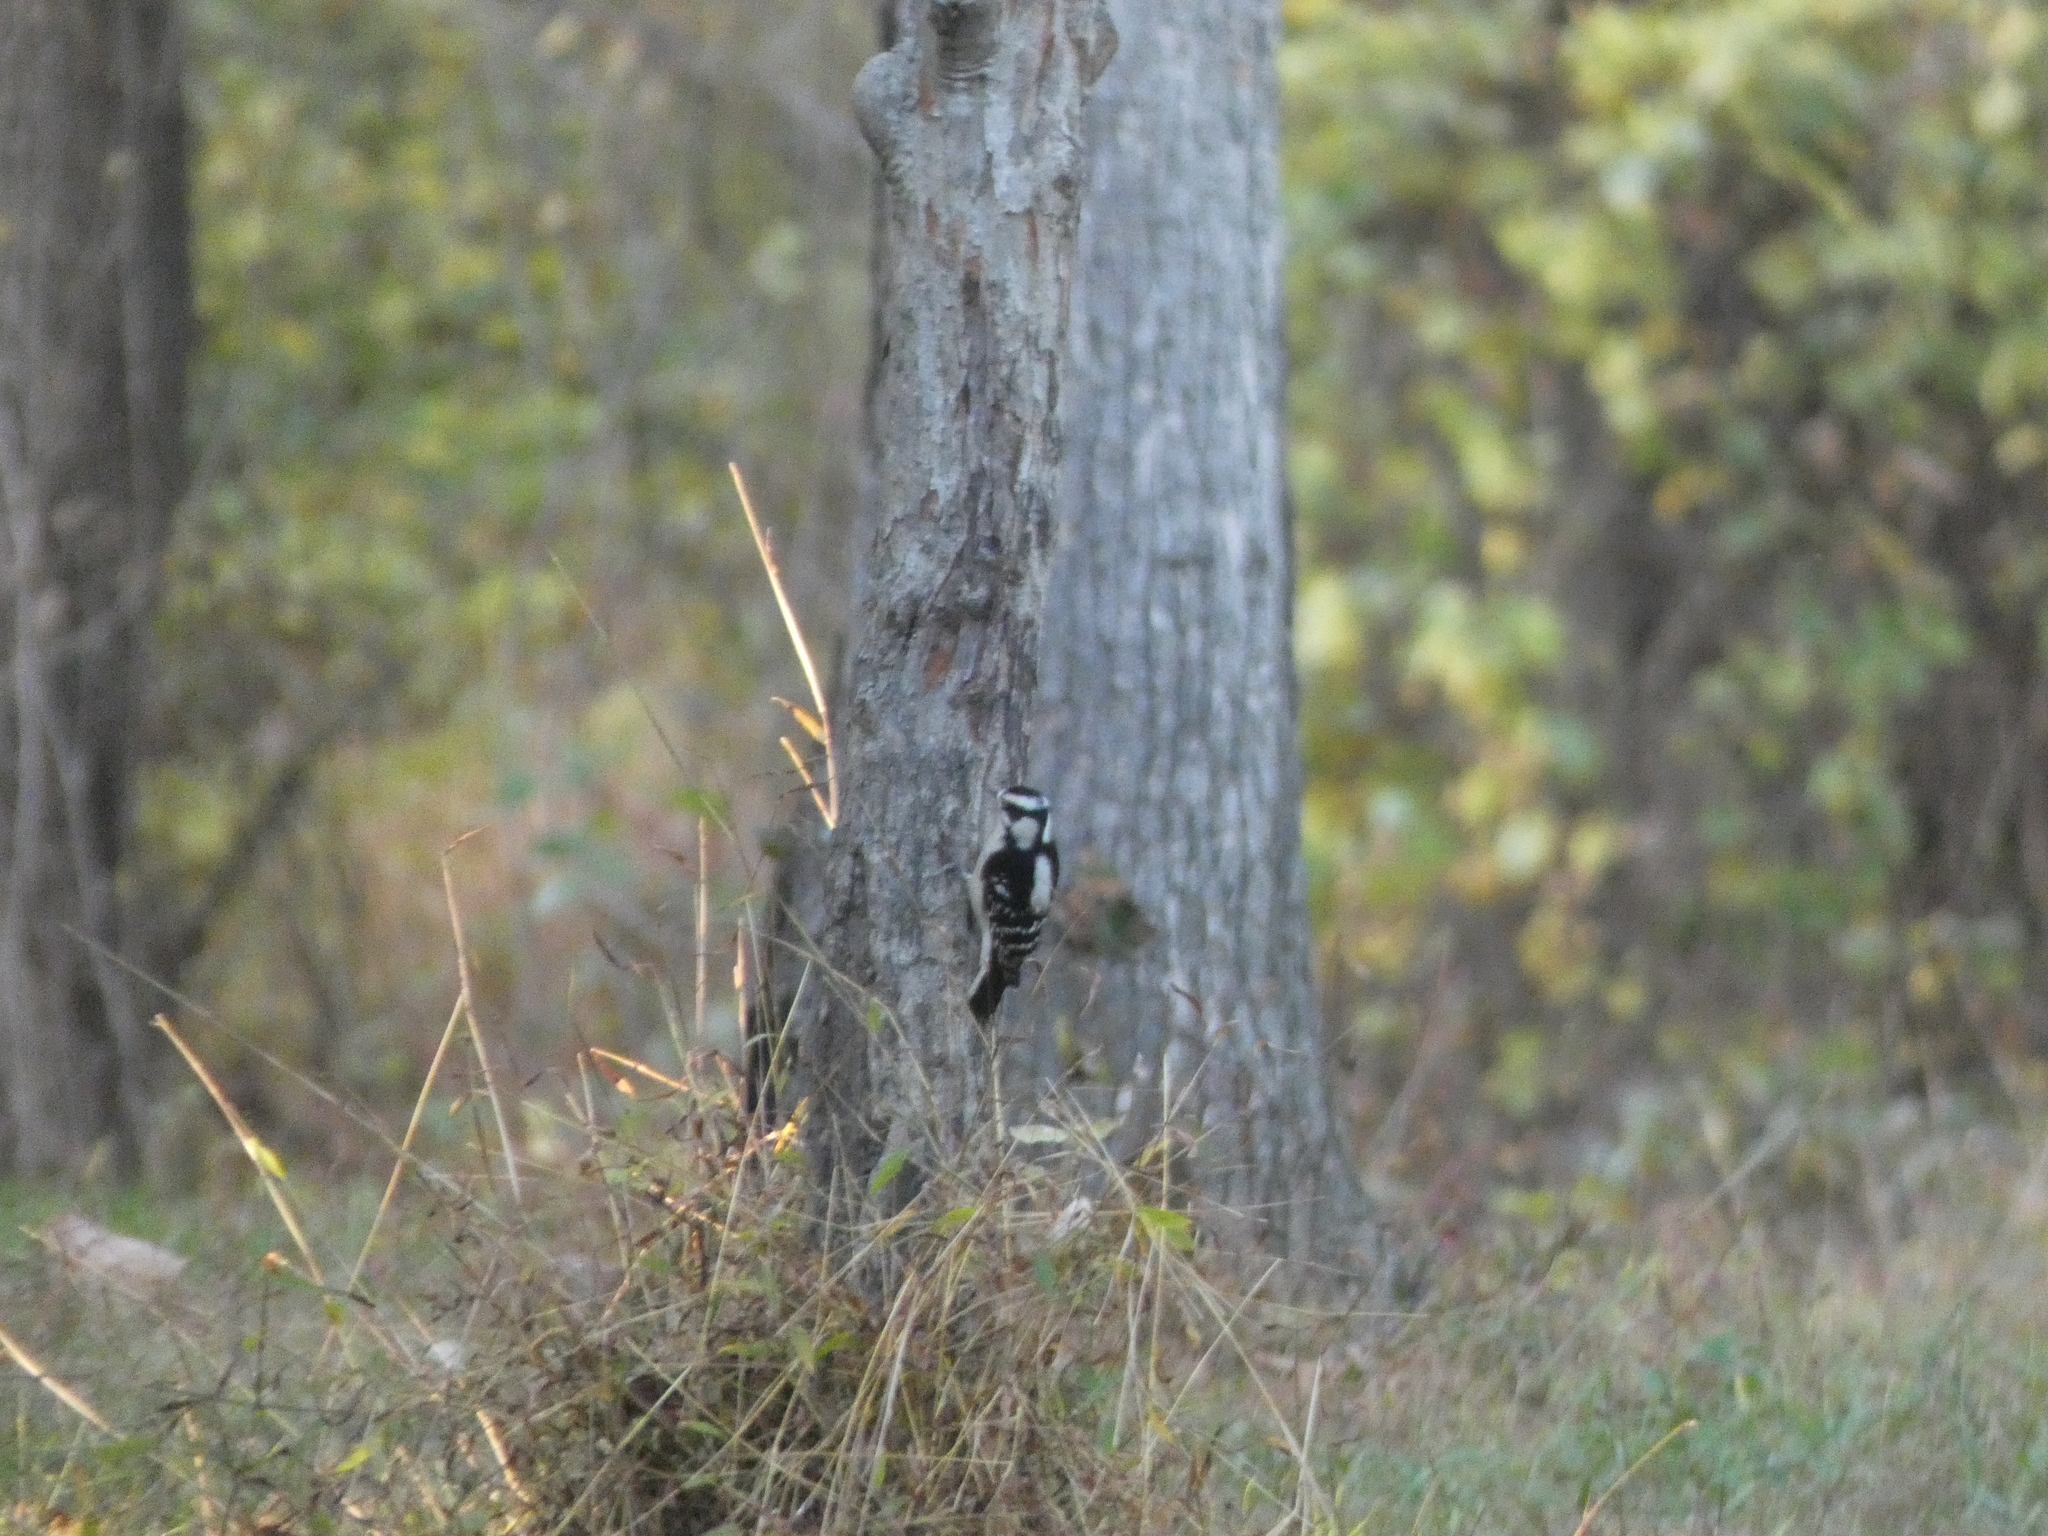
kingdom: Animalia
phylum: Chordata
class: Aves
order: Piciformes
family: Picidae
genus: Dryobates
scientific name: Dryobates pubescens
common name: Downy woodpecker
